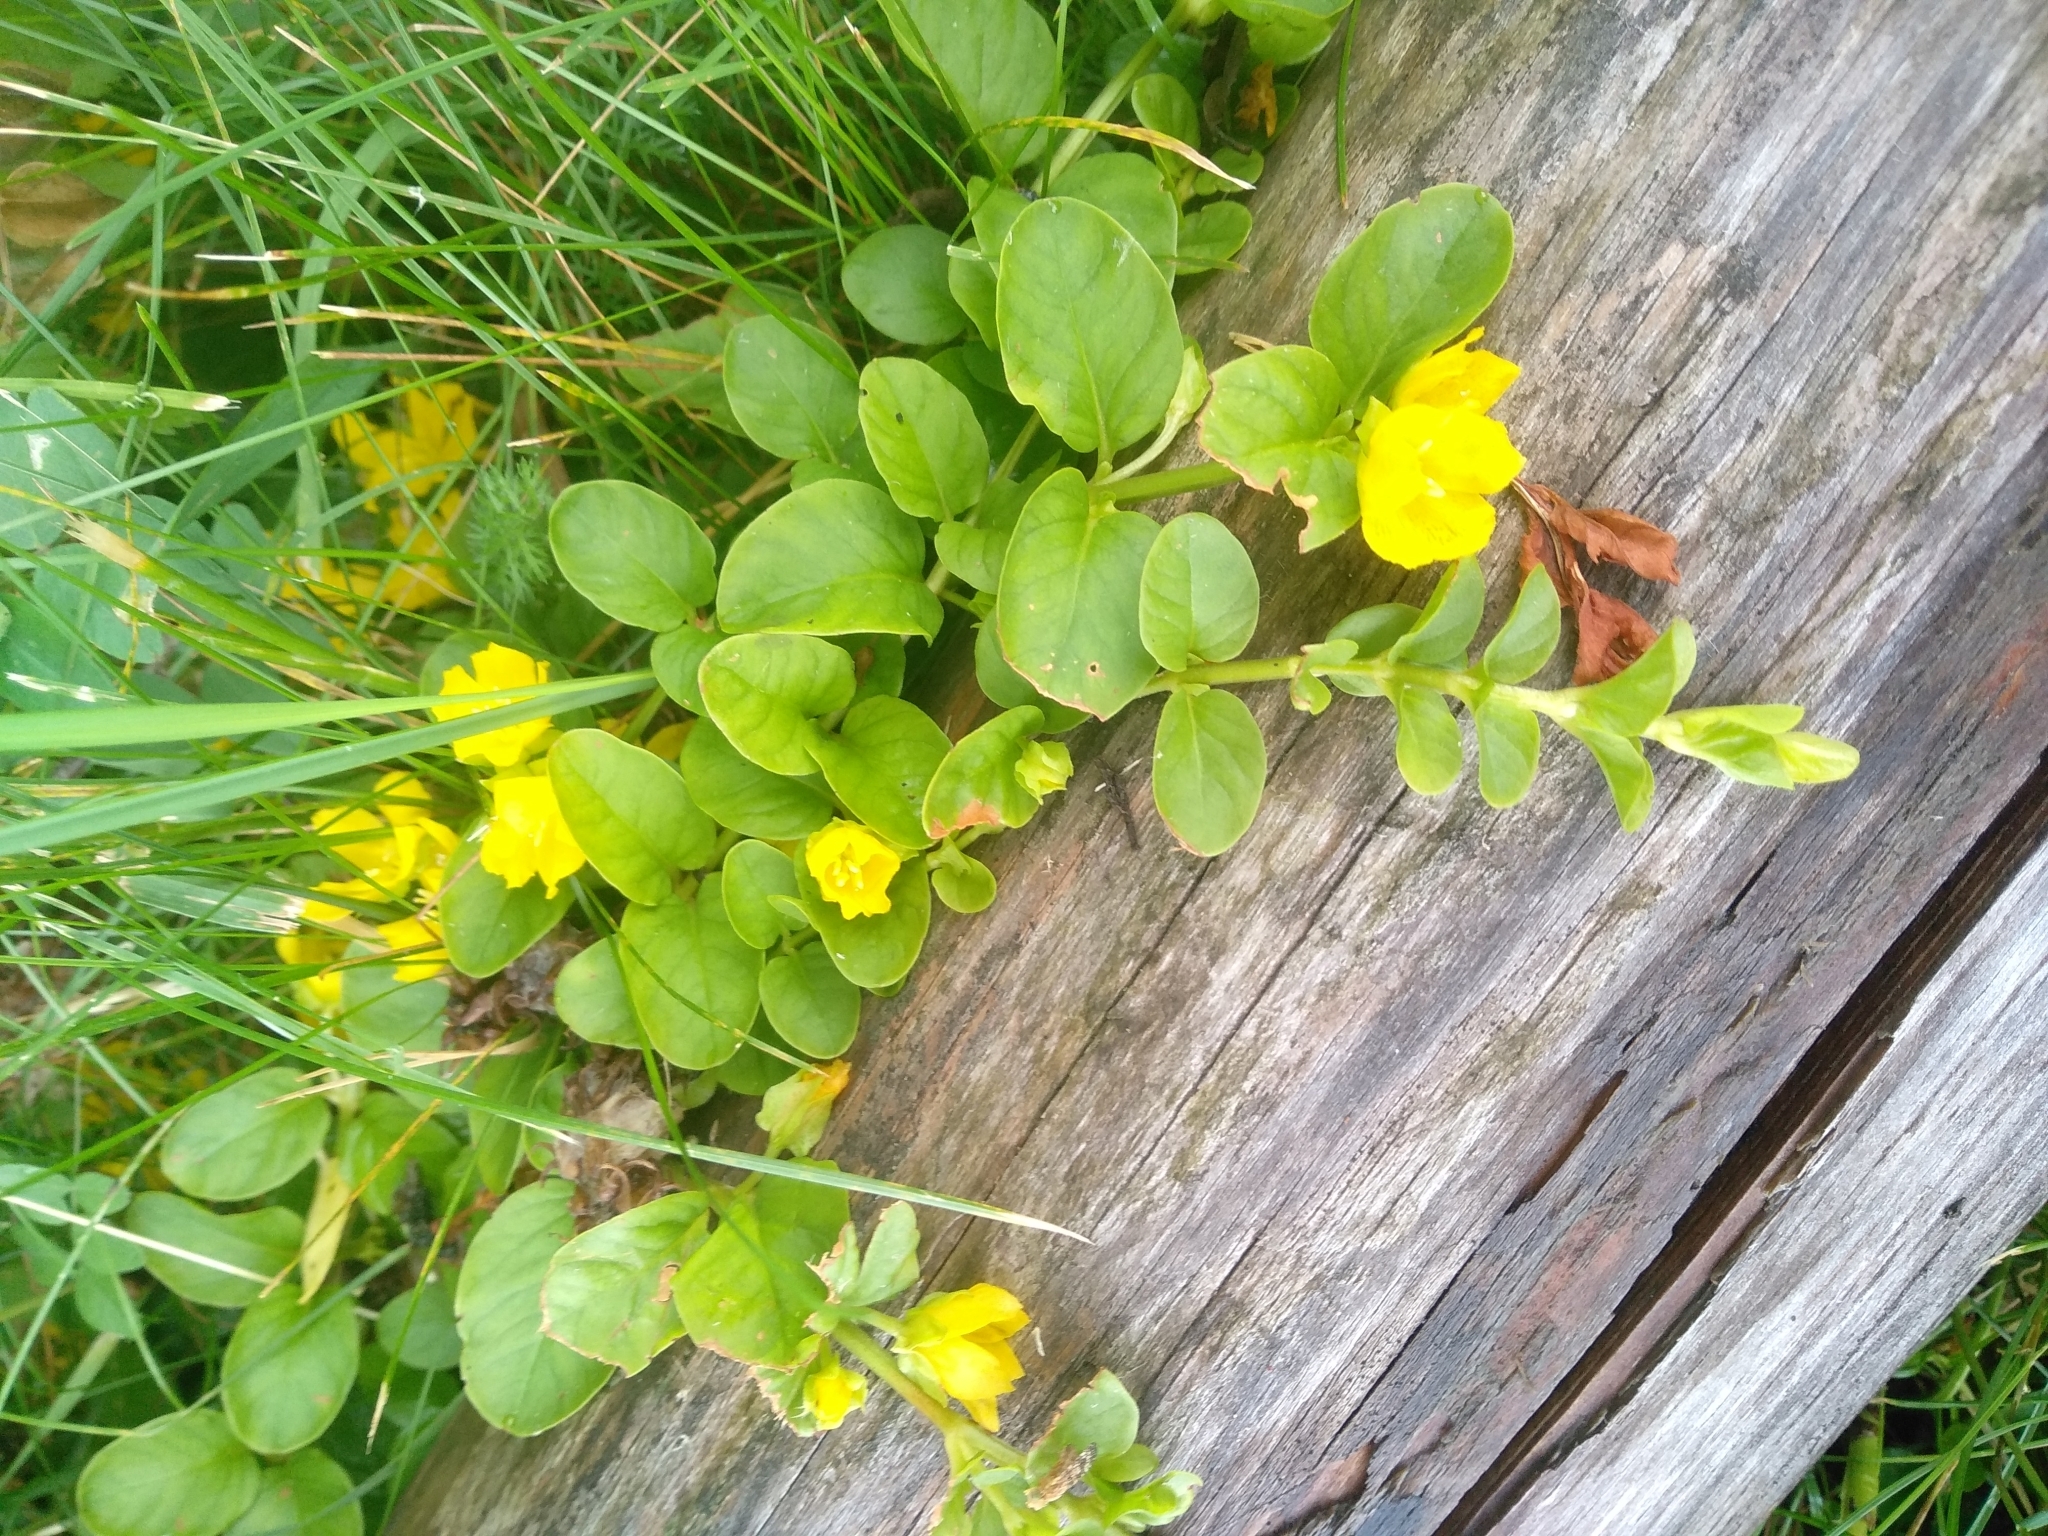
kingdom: Plantae
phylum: Tracheophyta
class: Magnoliopsida
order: Ericales
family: Primulaceae
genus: Lysimachia
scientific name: Lysimachia nummularia
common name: Moneywort
